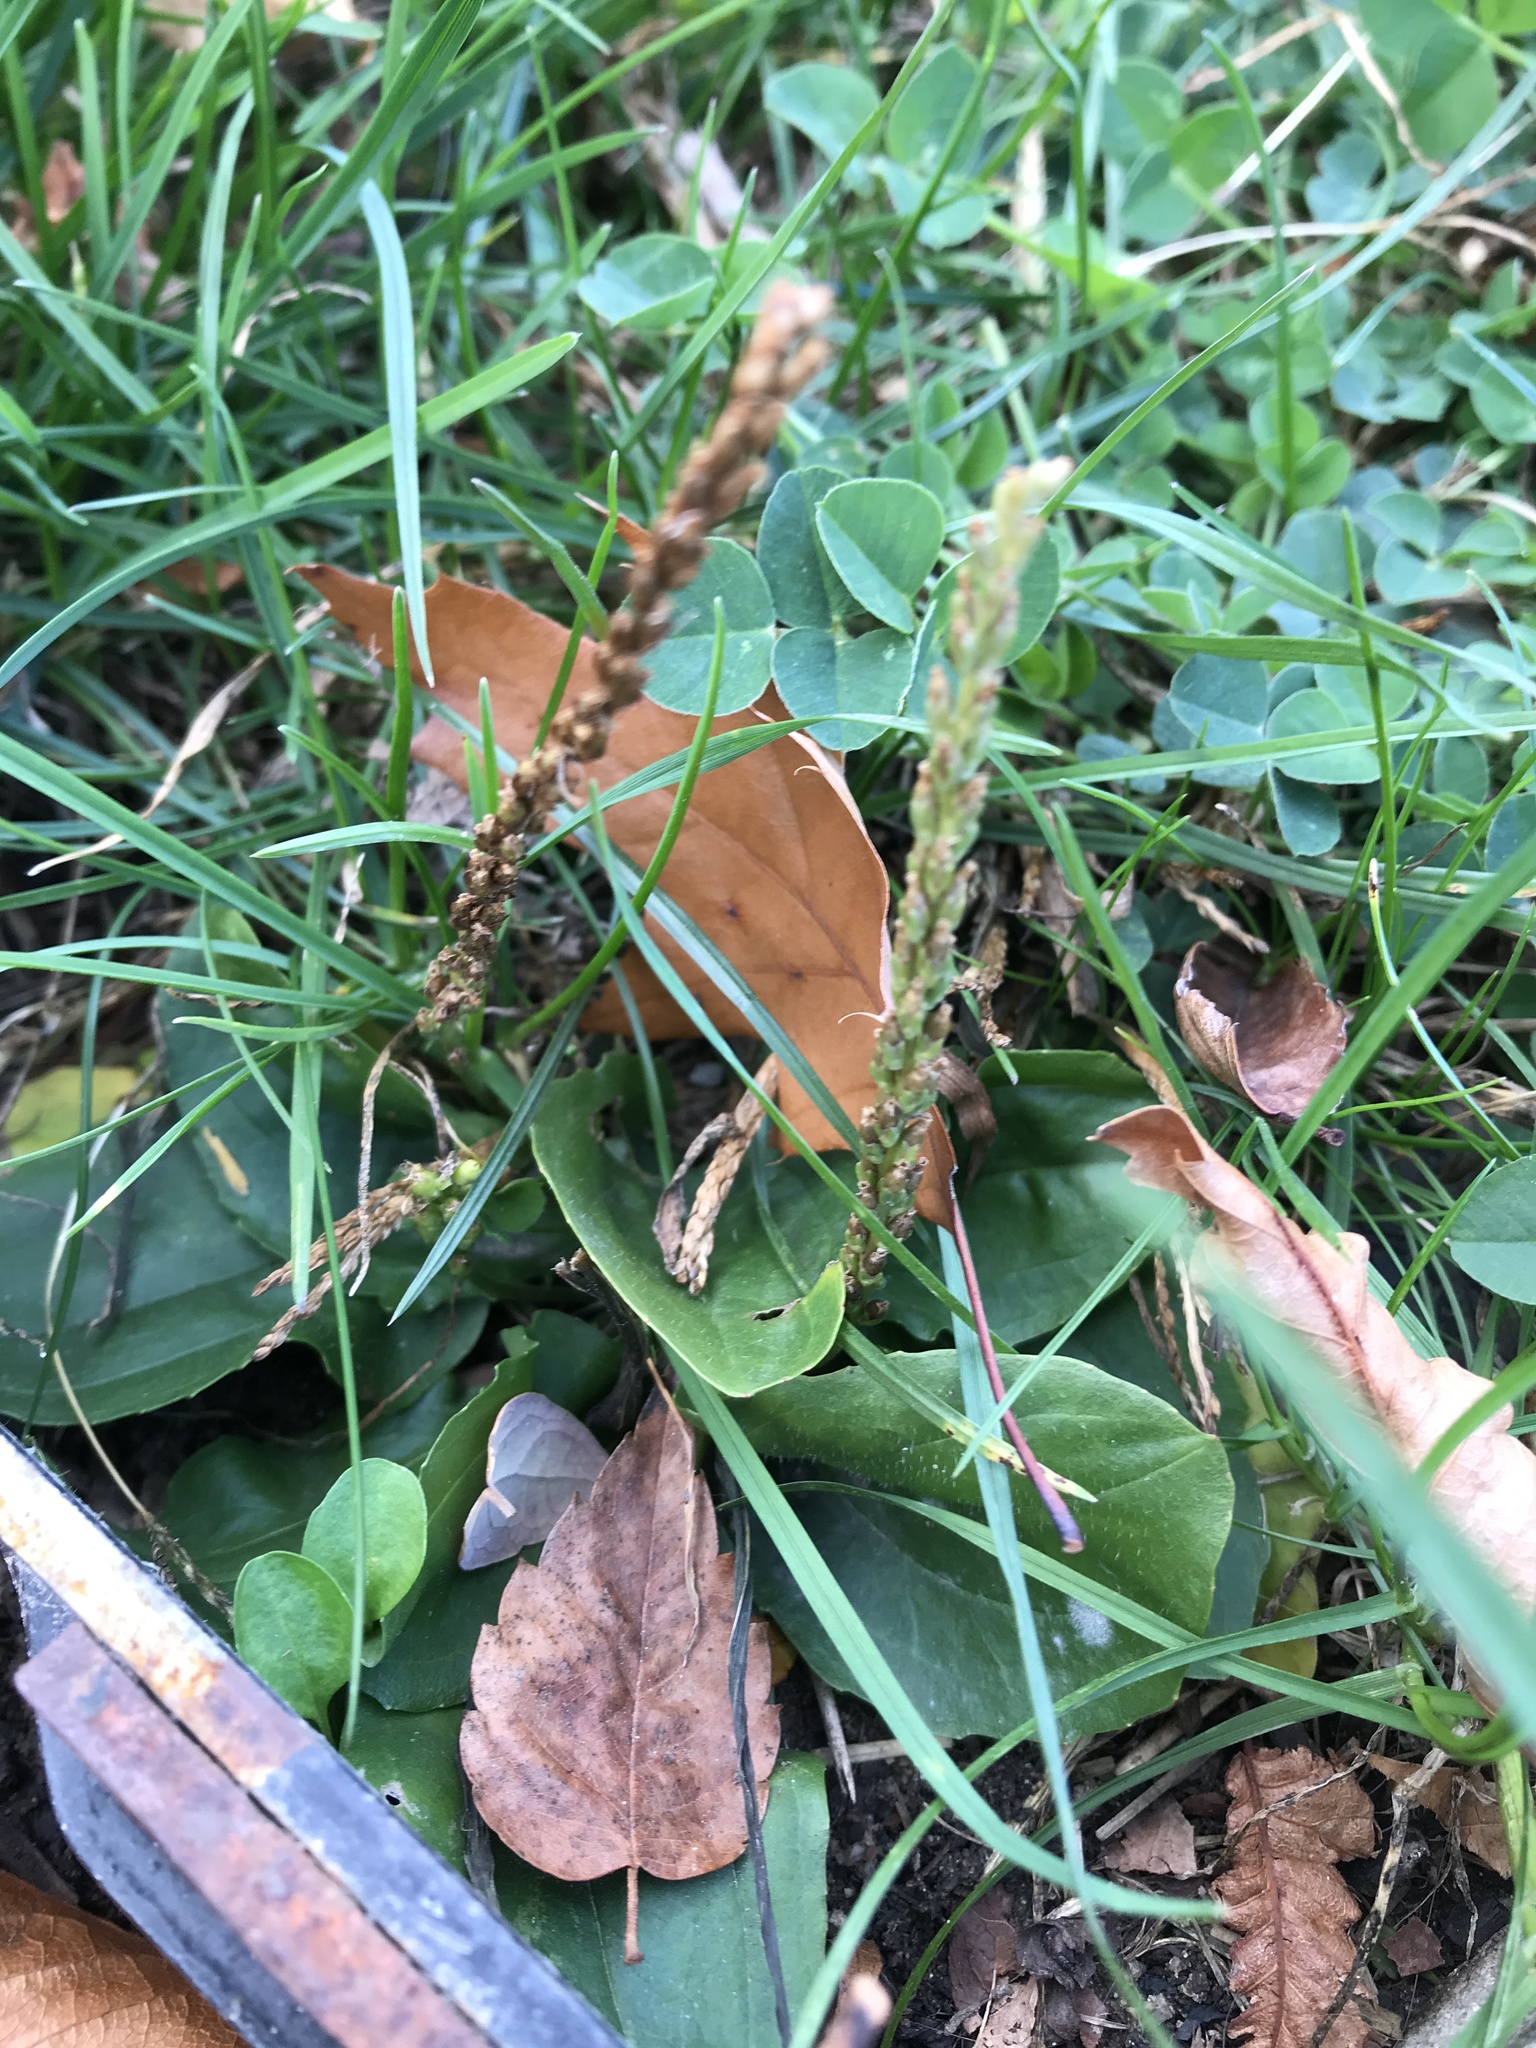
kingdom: Plantae
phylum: Tracheophyta
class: Magnoliopsida
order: Lamiales
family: Plantaginaceae
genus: Plantago
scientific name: Plantago major
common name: Common plantain
